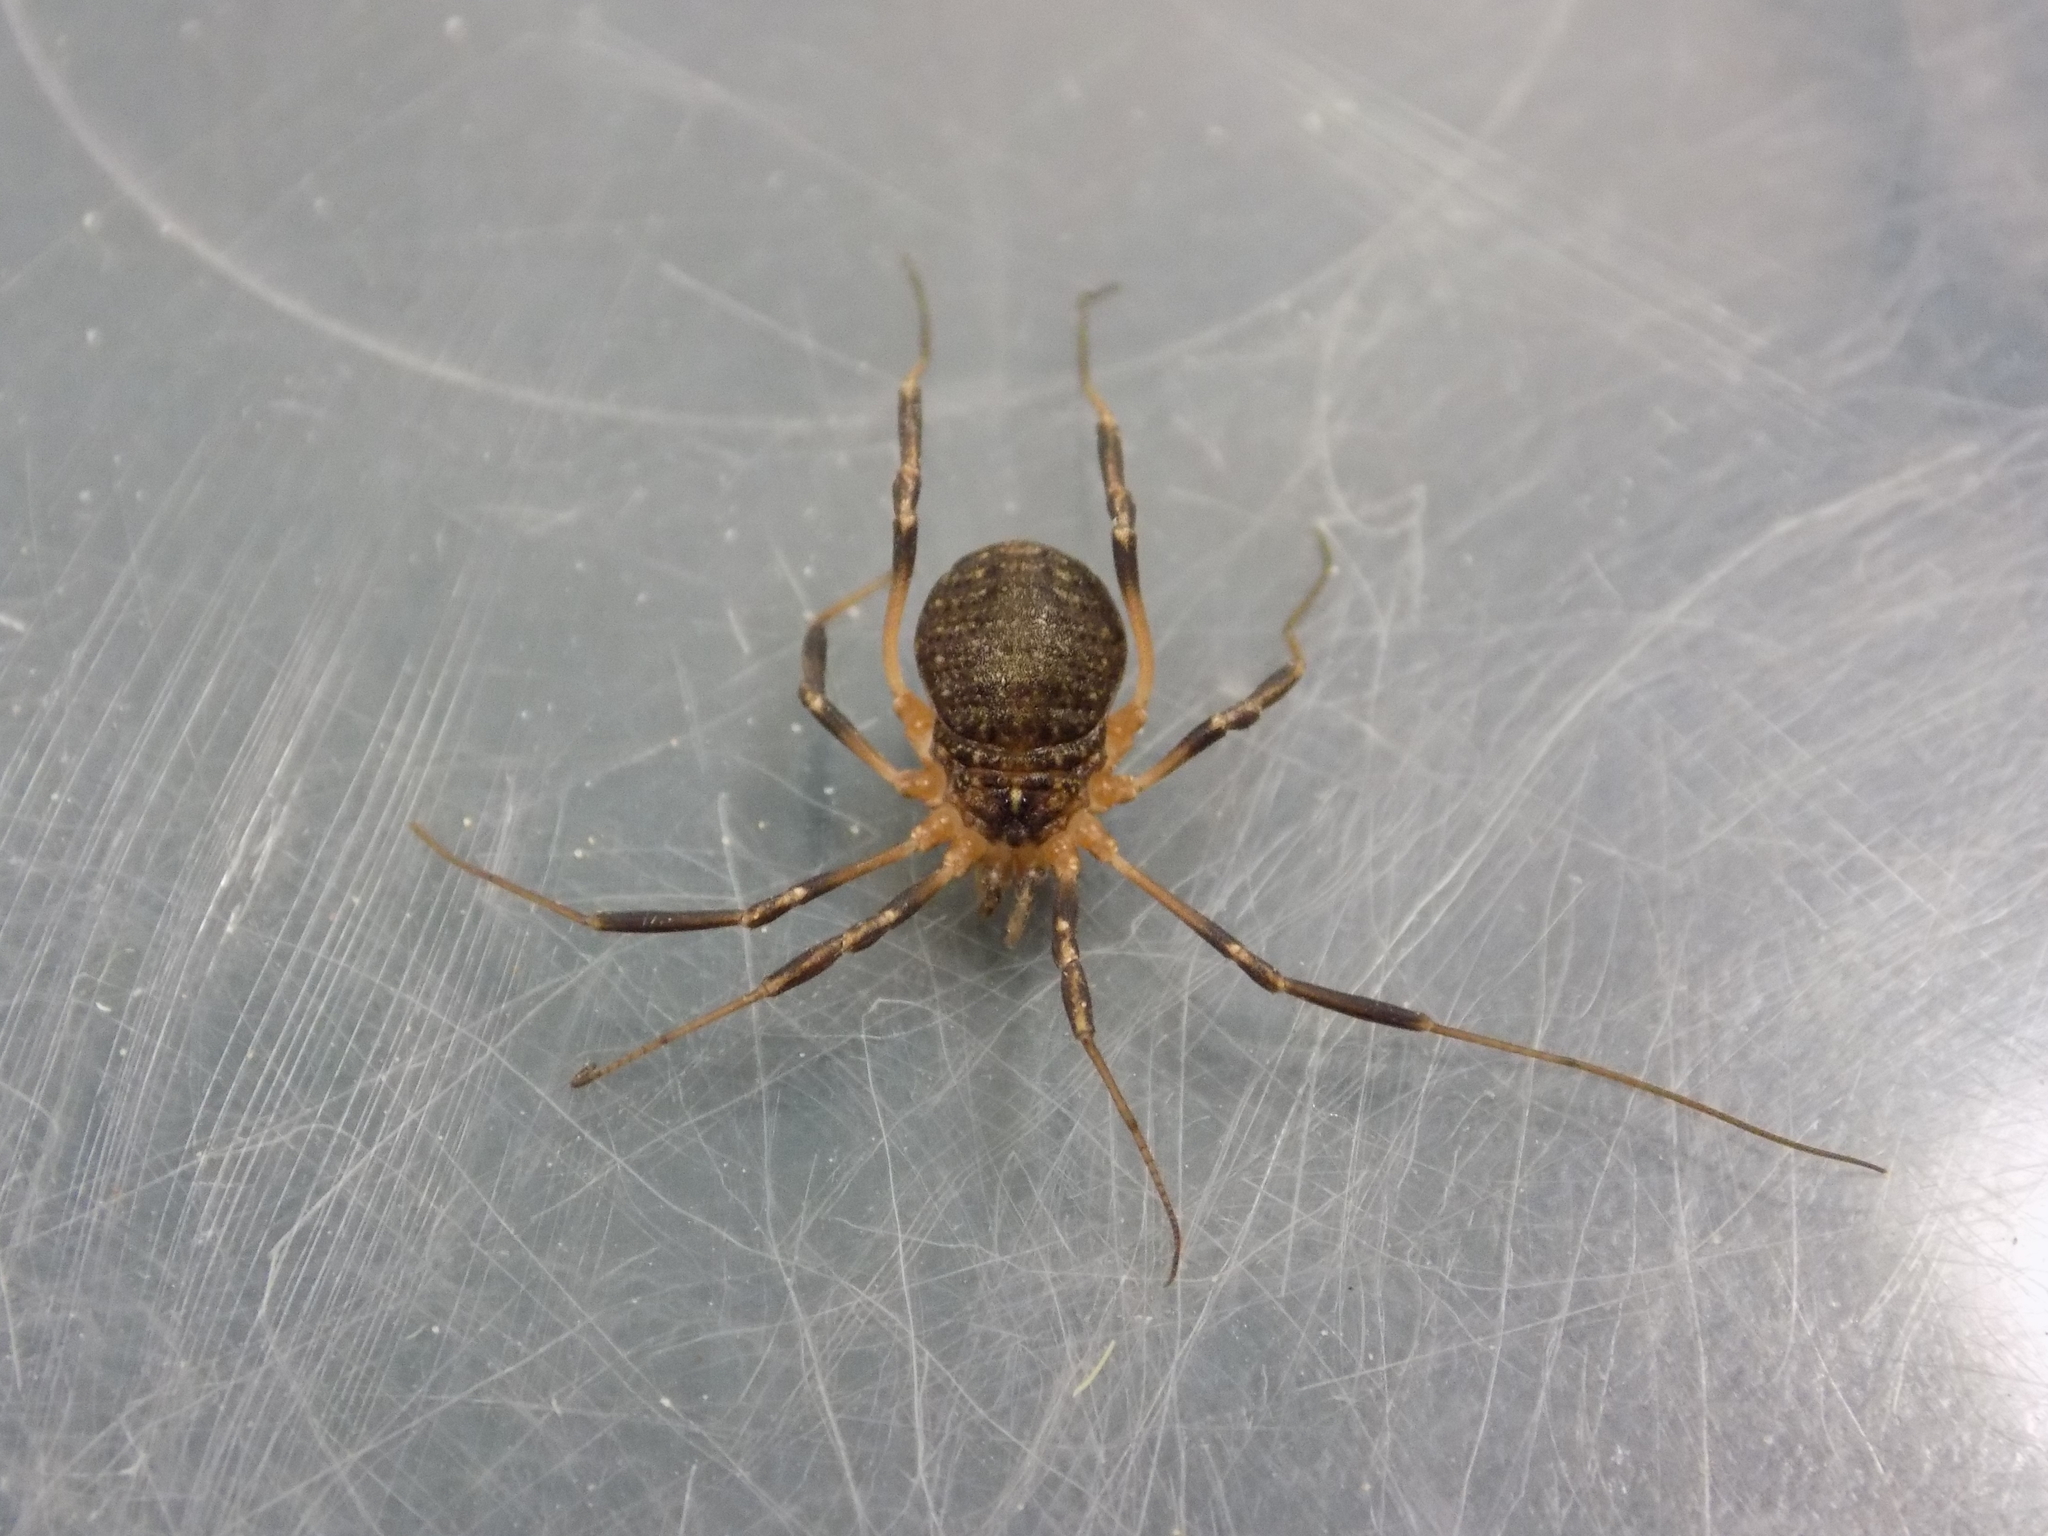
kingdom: Animalia
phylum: Arthropoda
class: Arachnida
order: Opiliones
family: Sclerosomatidae
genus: Eumesosoma
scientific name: Eumesosoma roeweri
